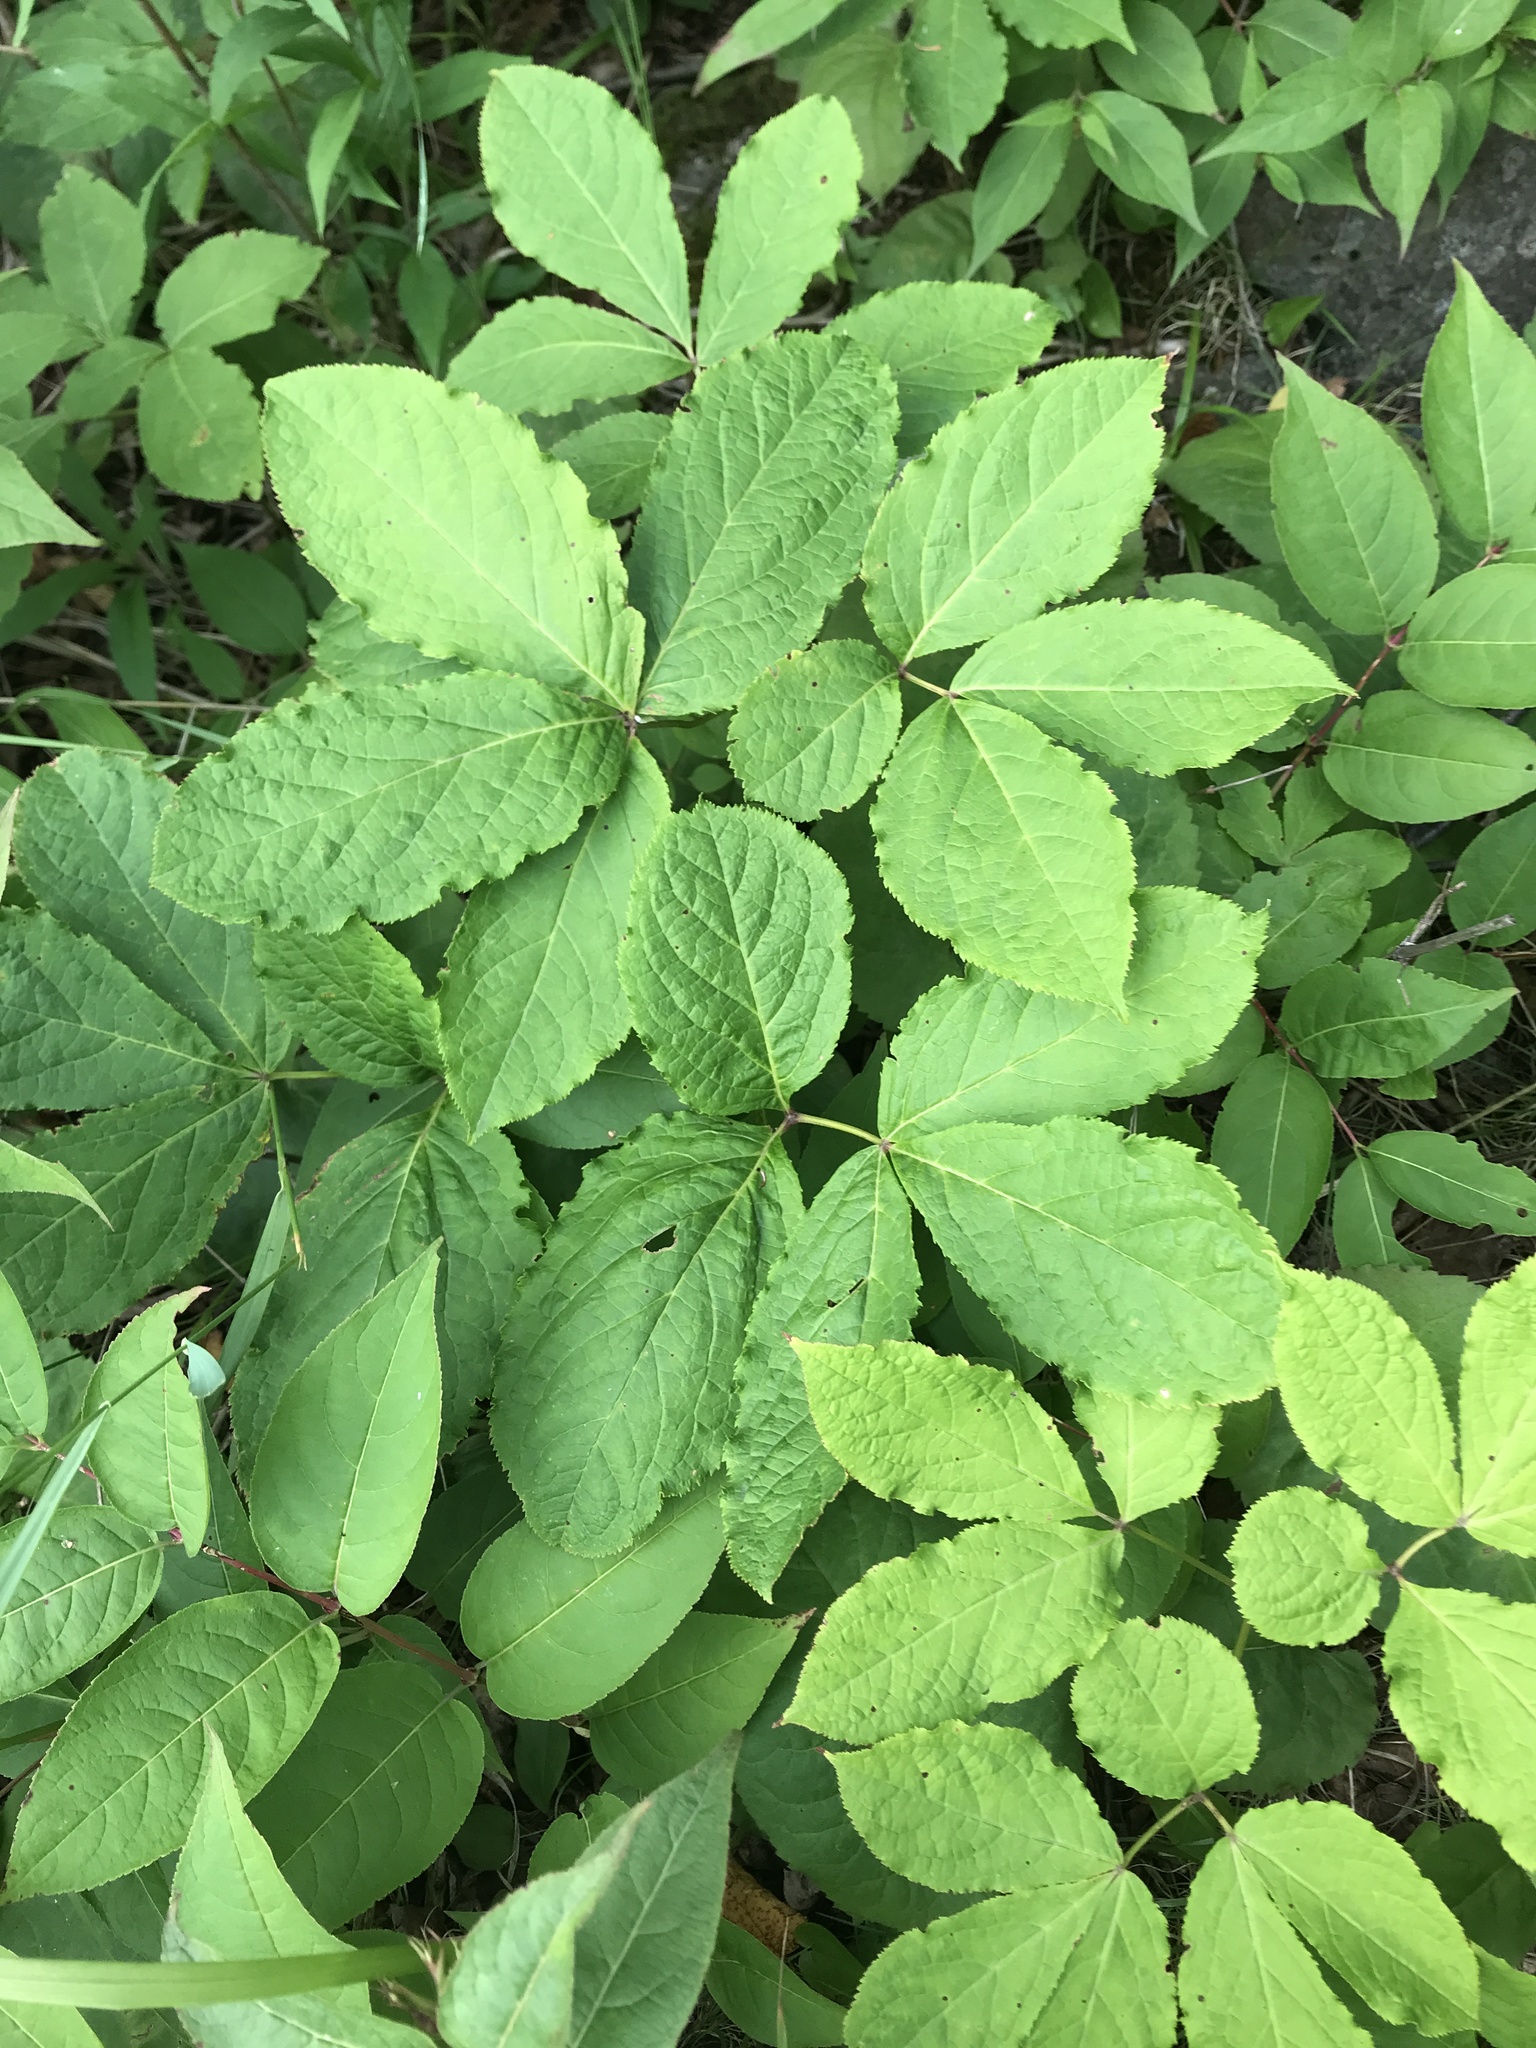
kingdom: Plantae
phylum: Tracheophyta
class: Magnoliopsida
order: Apiales
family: Araliaceae
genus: Aralia
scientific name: Aralia nudicaulis
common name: Wild sarsaparilla
